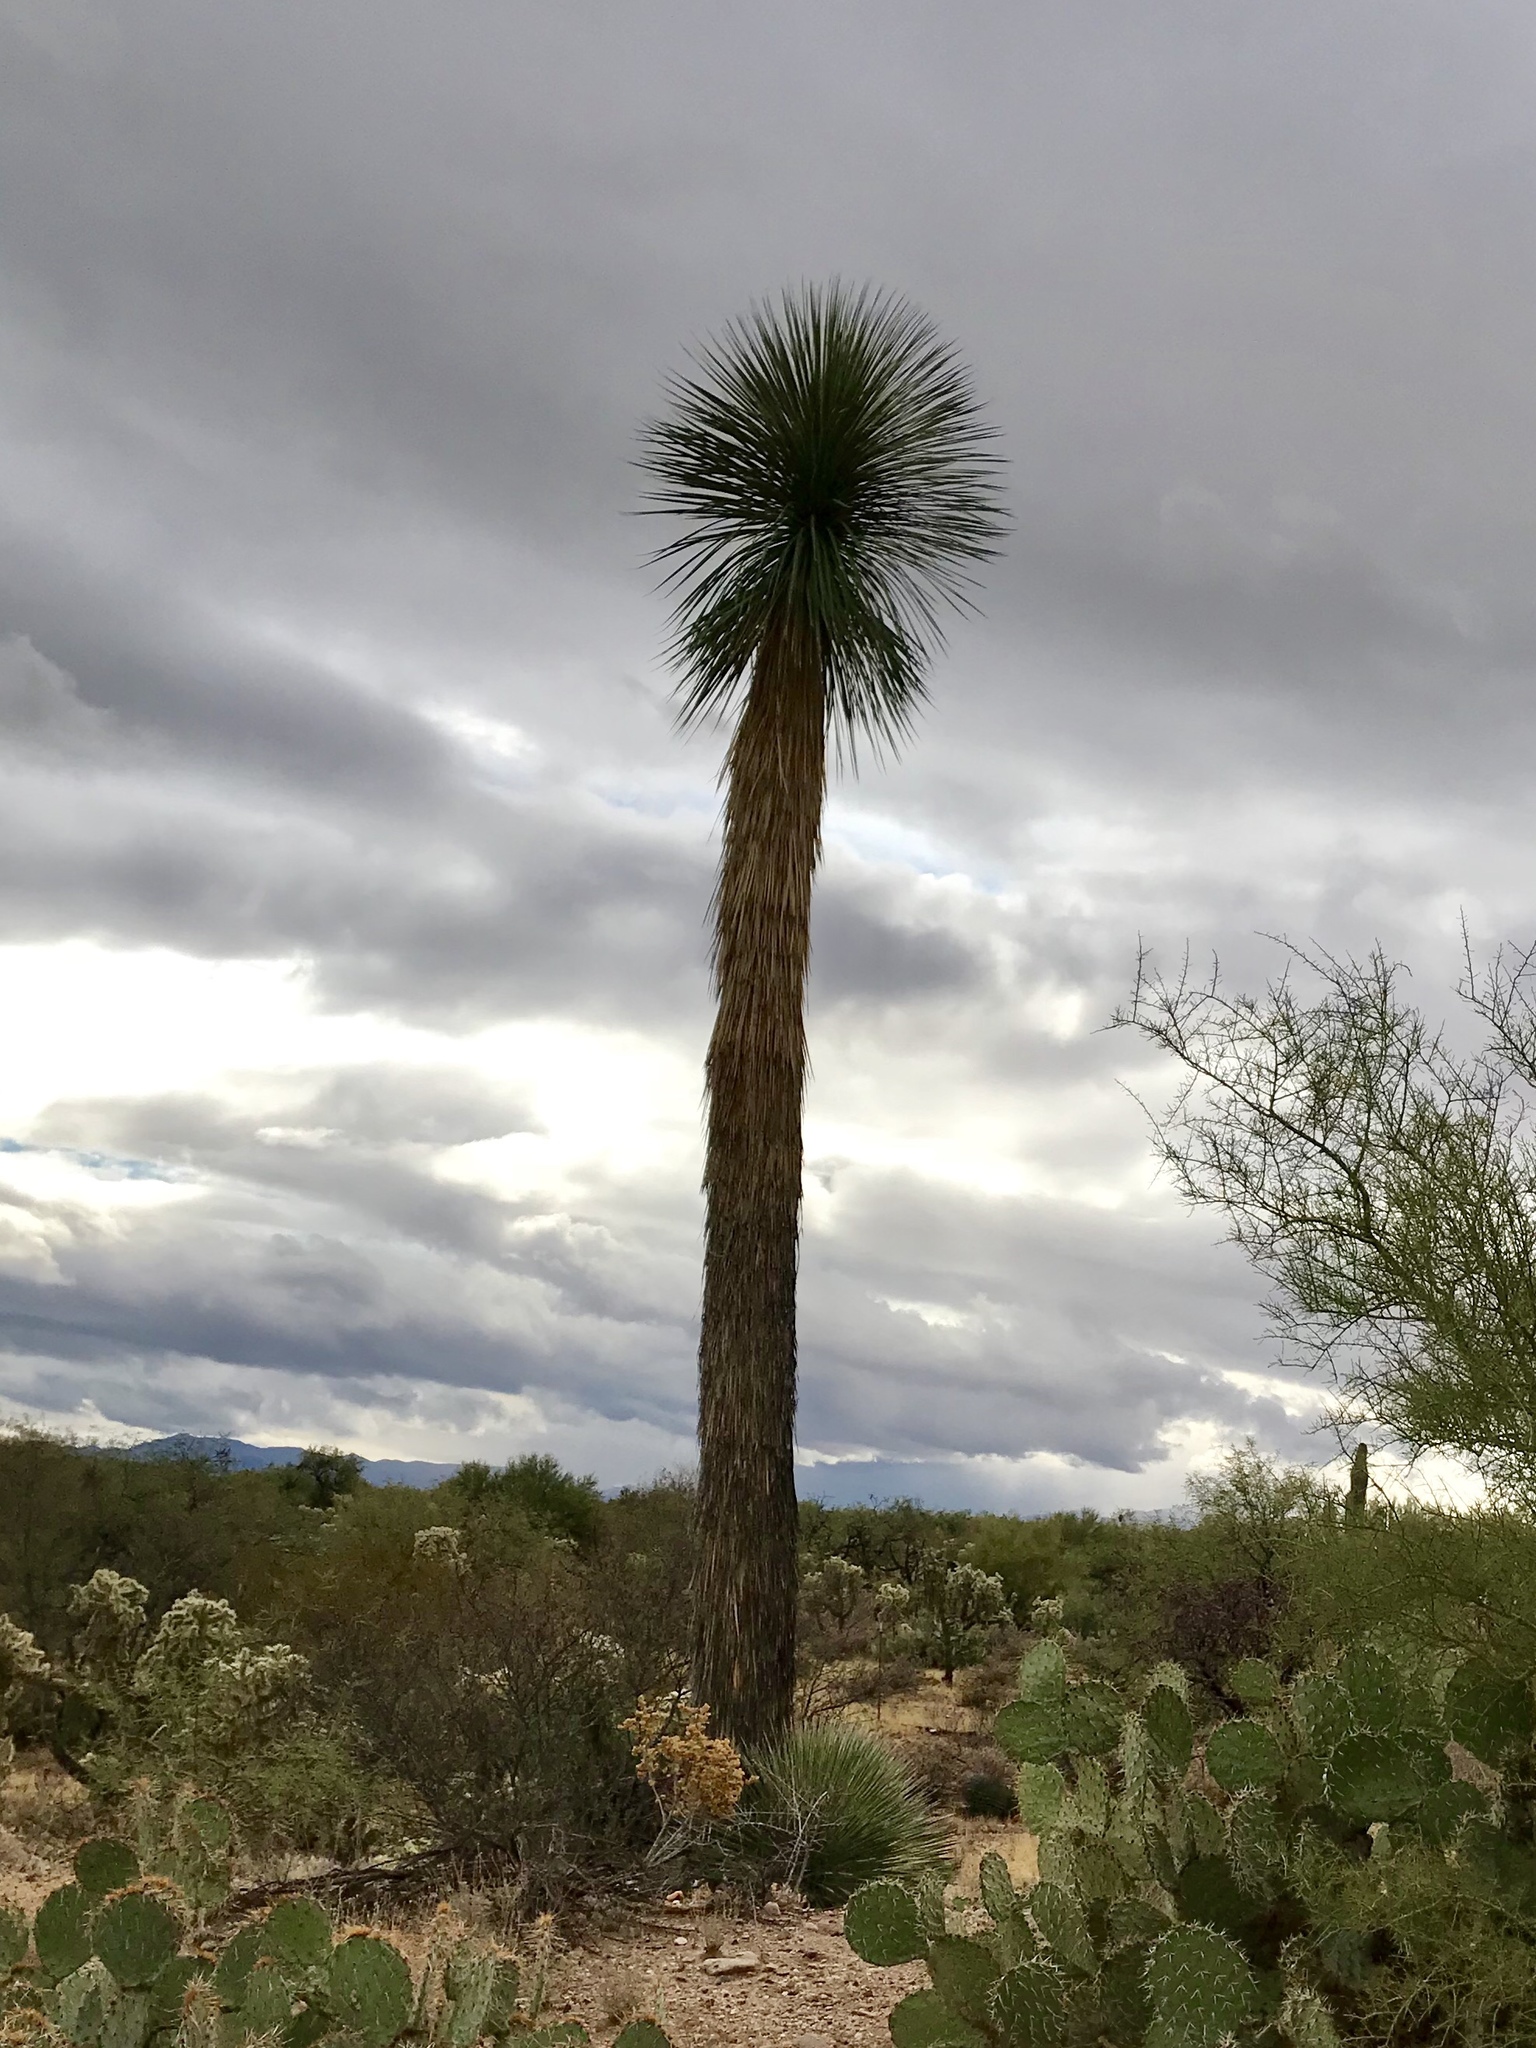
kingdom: Plantae
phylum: Tracheophyta
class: Liliopsida
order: Asparagales
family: Asparagaceae
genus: Yucca
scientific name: Yucca elata
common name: Palmella
